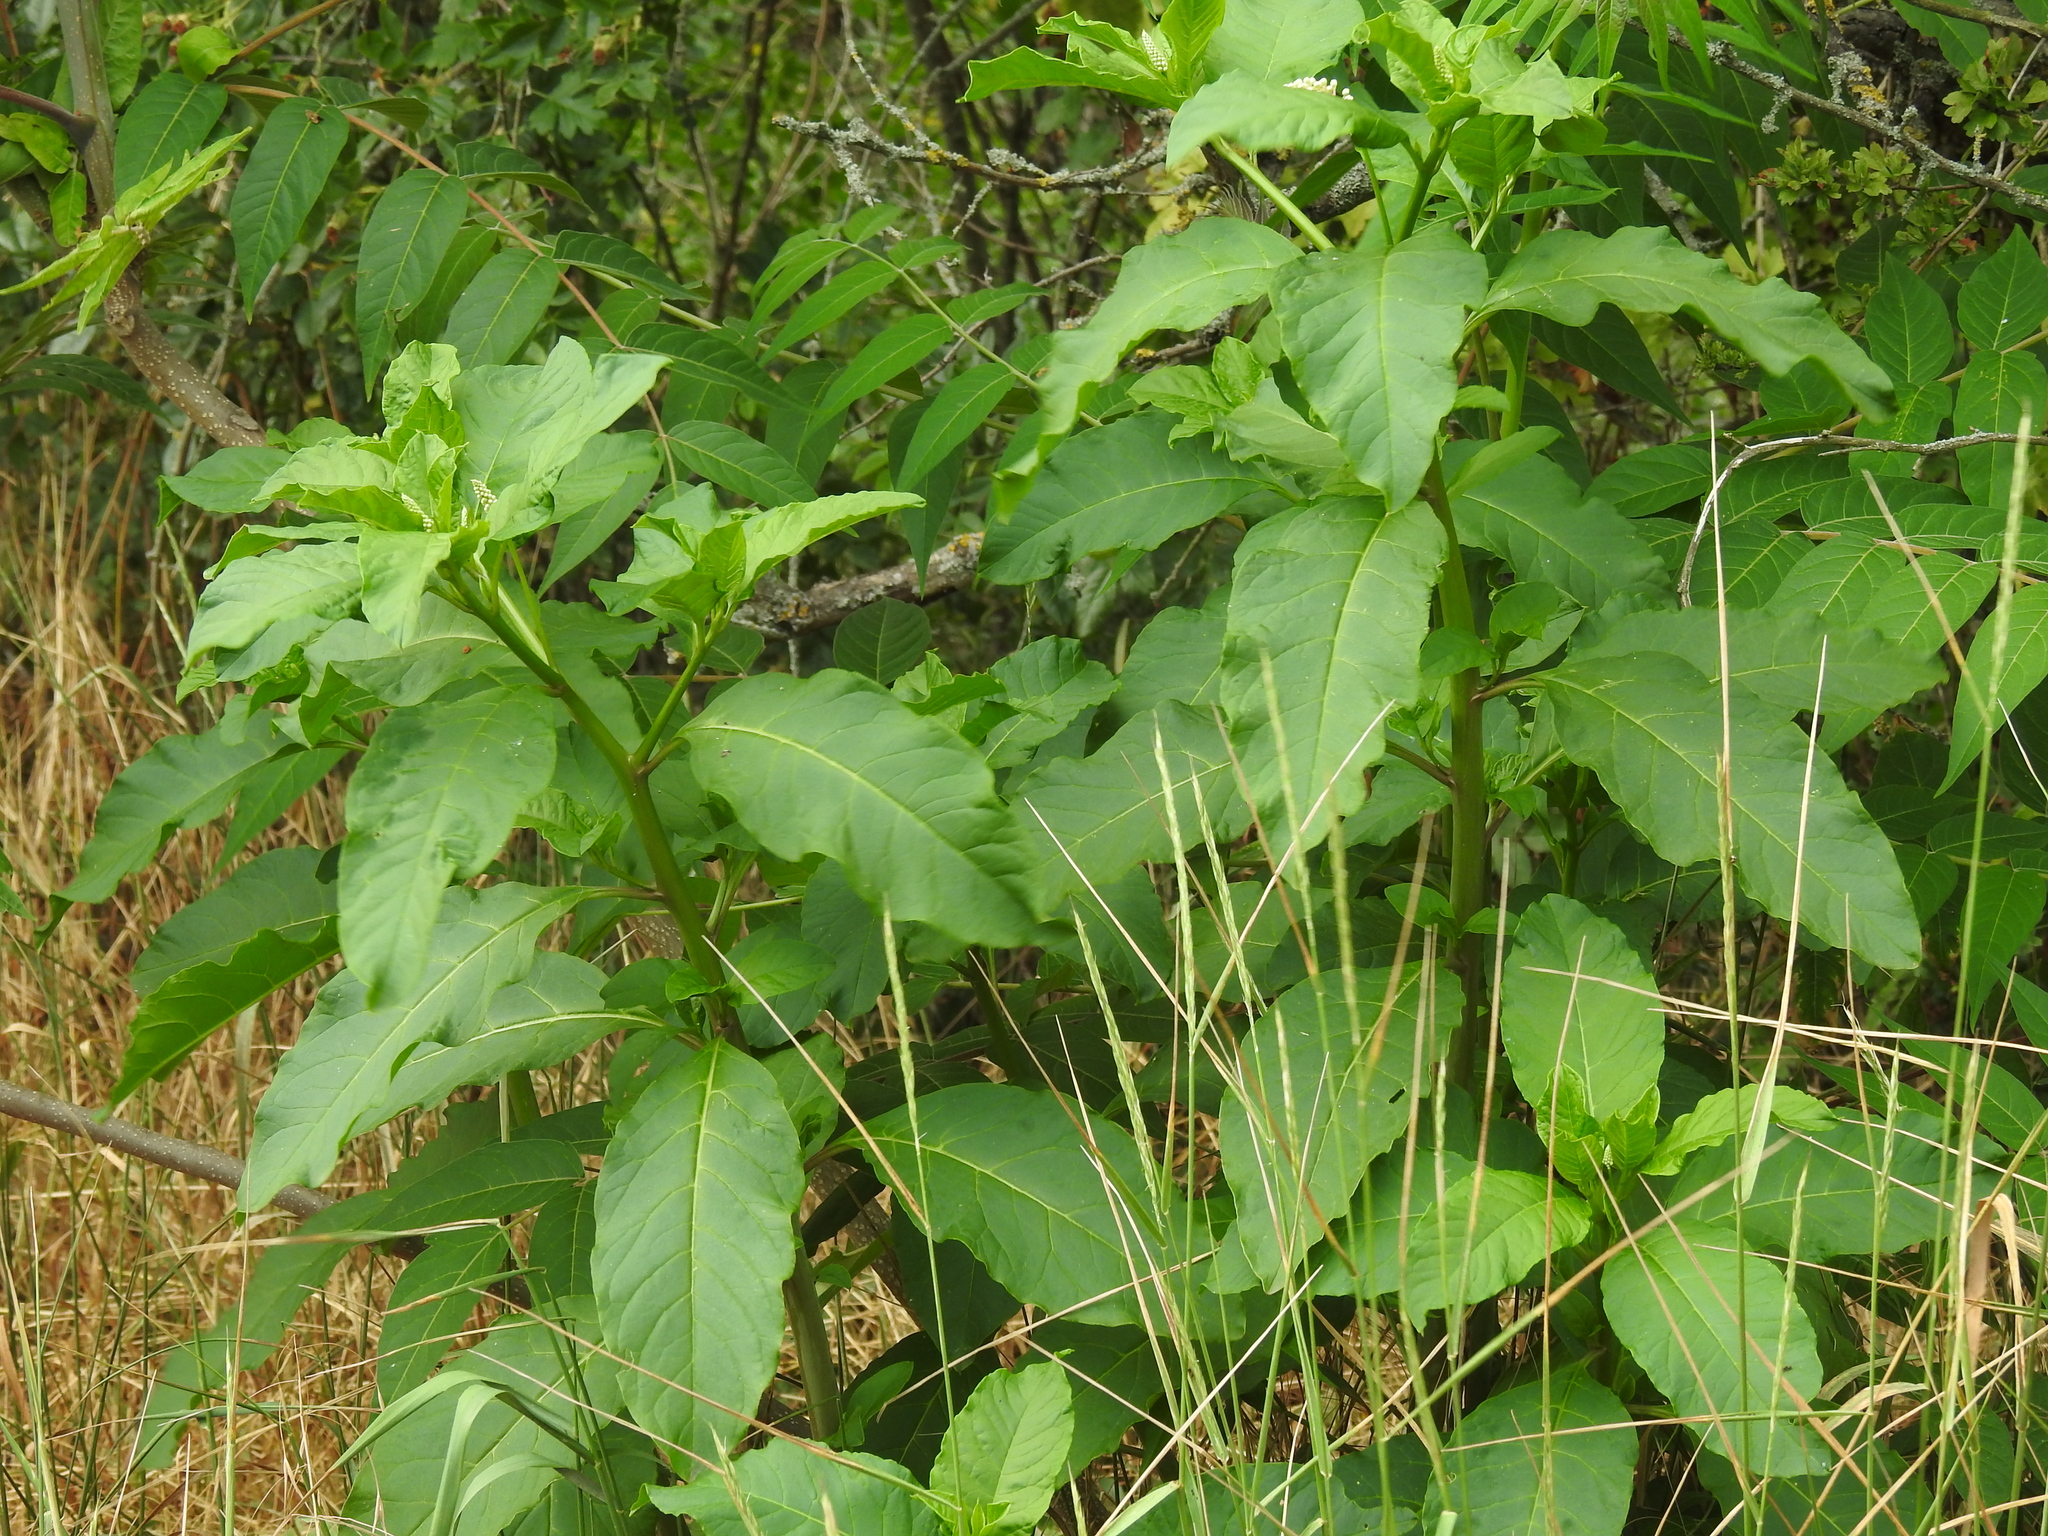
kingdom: Plantae
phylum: Tracheophyta
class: Magnoliopsida
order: Caryophyllales
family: Phytolaccaceae
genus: Phytolacca
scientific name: Phytolacca americana
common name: American pokeweed
